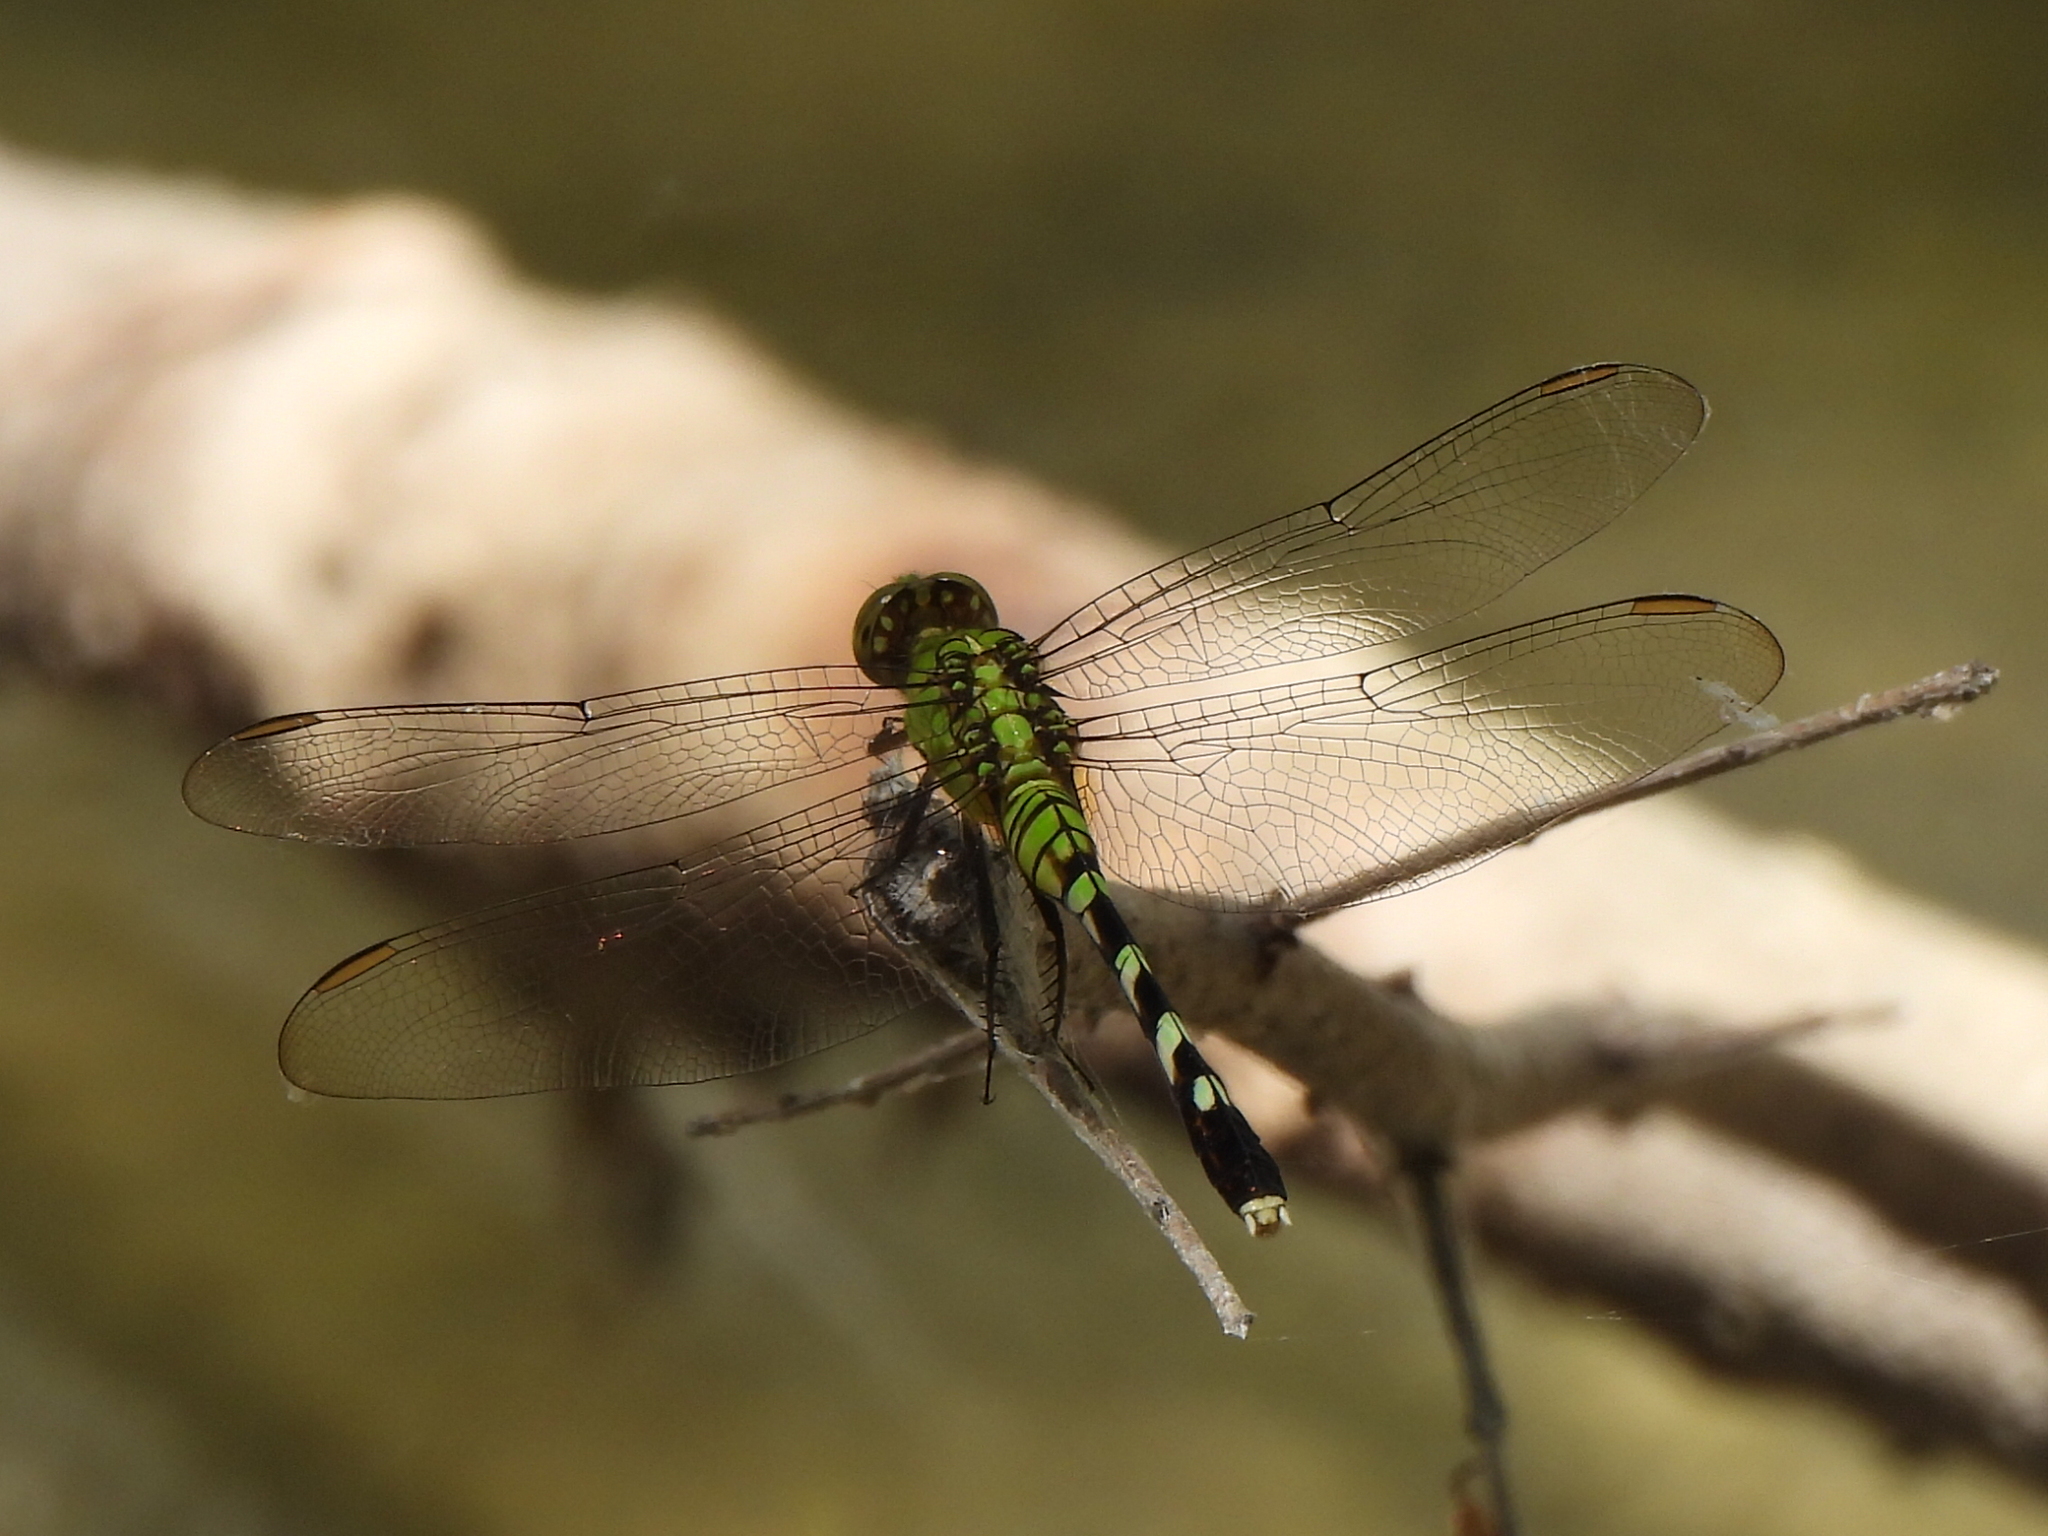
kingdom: Animalia
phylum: Arthropoda
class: Insecta
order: Odonata
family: Libellulidae
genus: Erythemis
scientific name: Erythemis simplicicollis
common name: Eastern pondhawk
